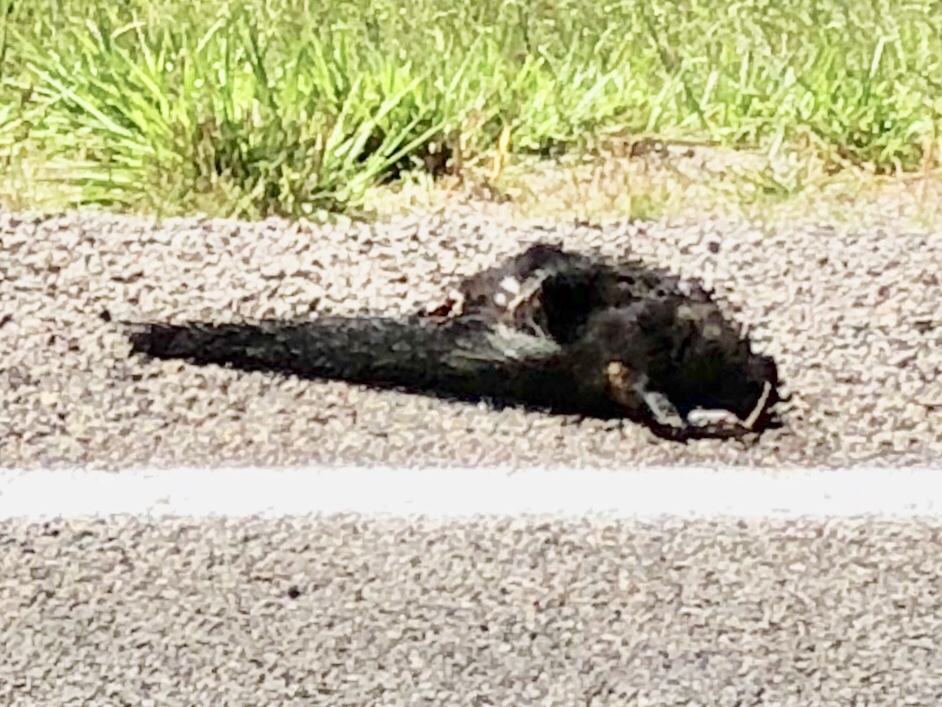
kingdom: Animalia
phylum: Chordata
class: Mammalia
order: Carnivora
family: Mephitidae
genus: Mephitis
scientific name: Mephitis mephitis
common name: Striped skunk
